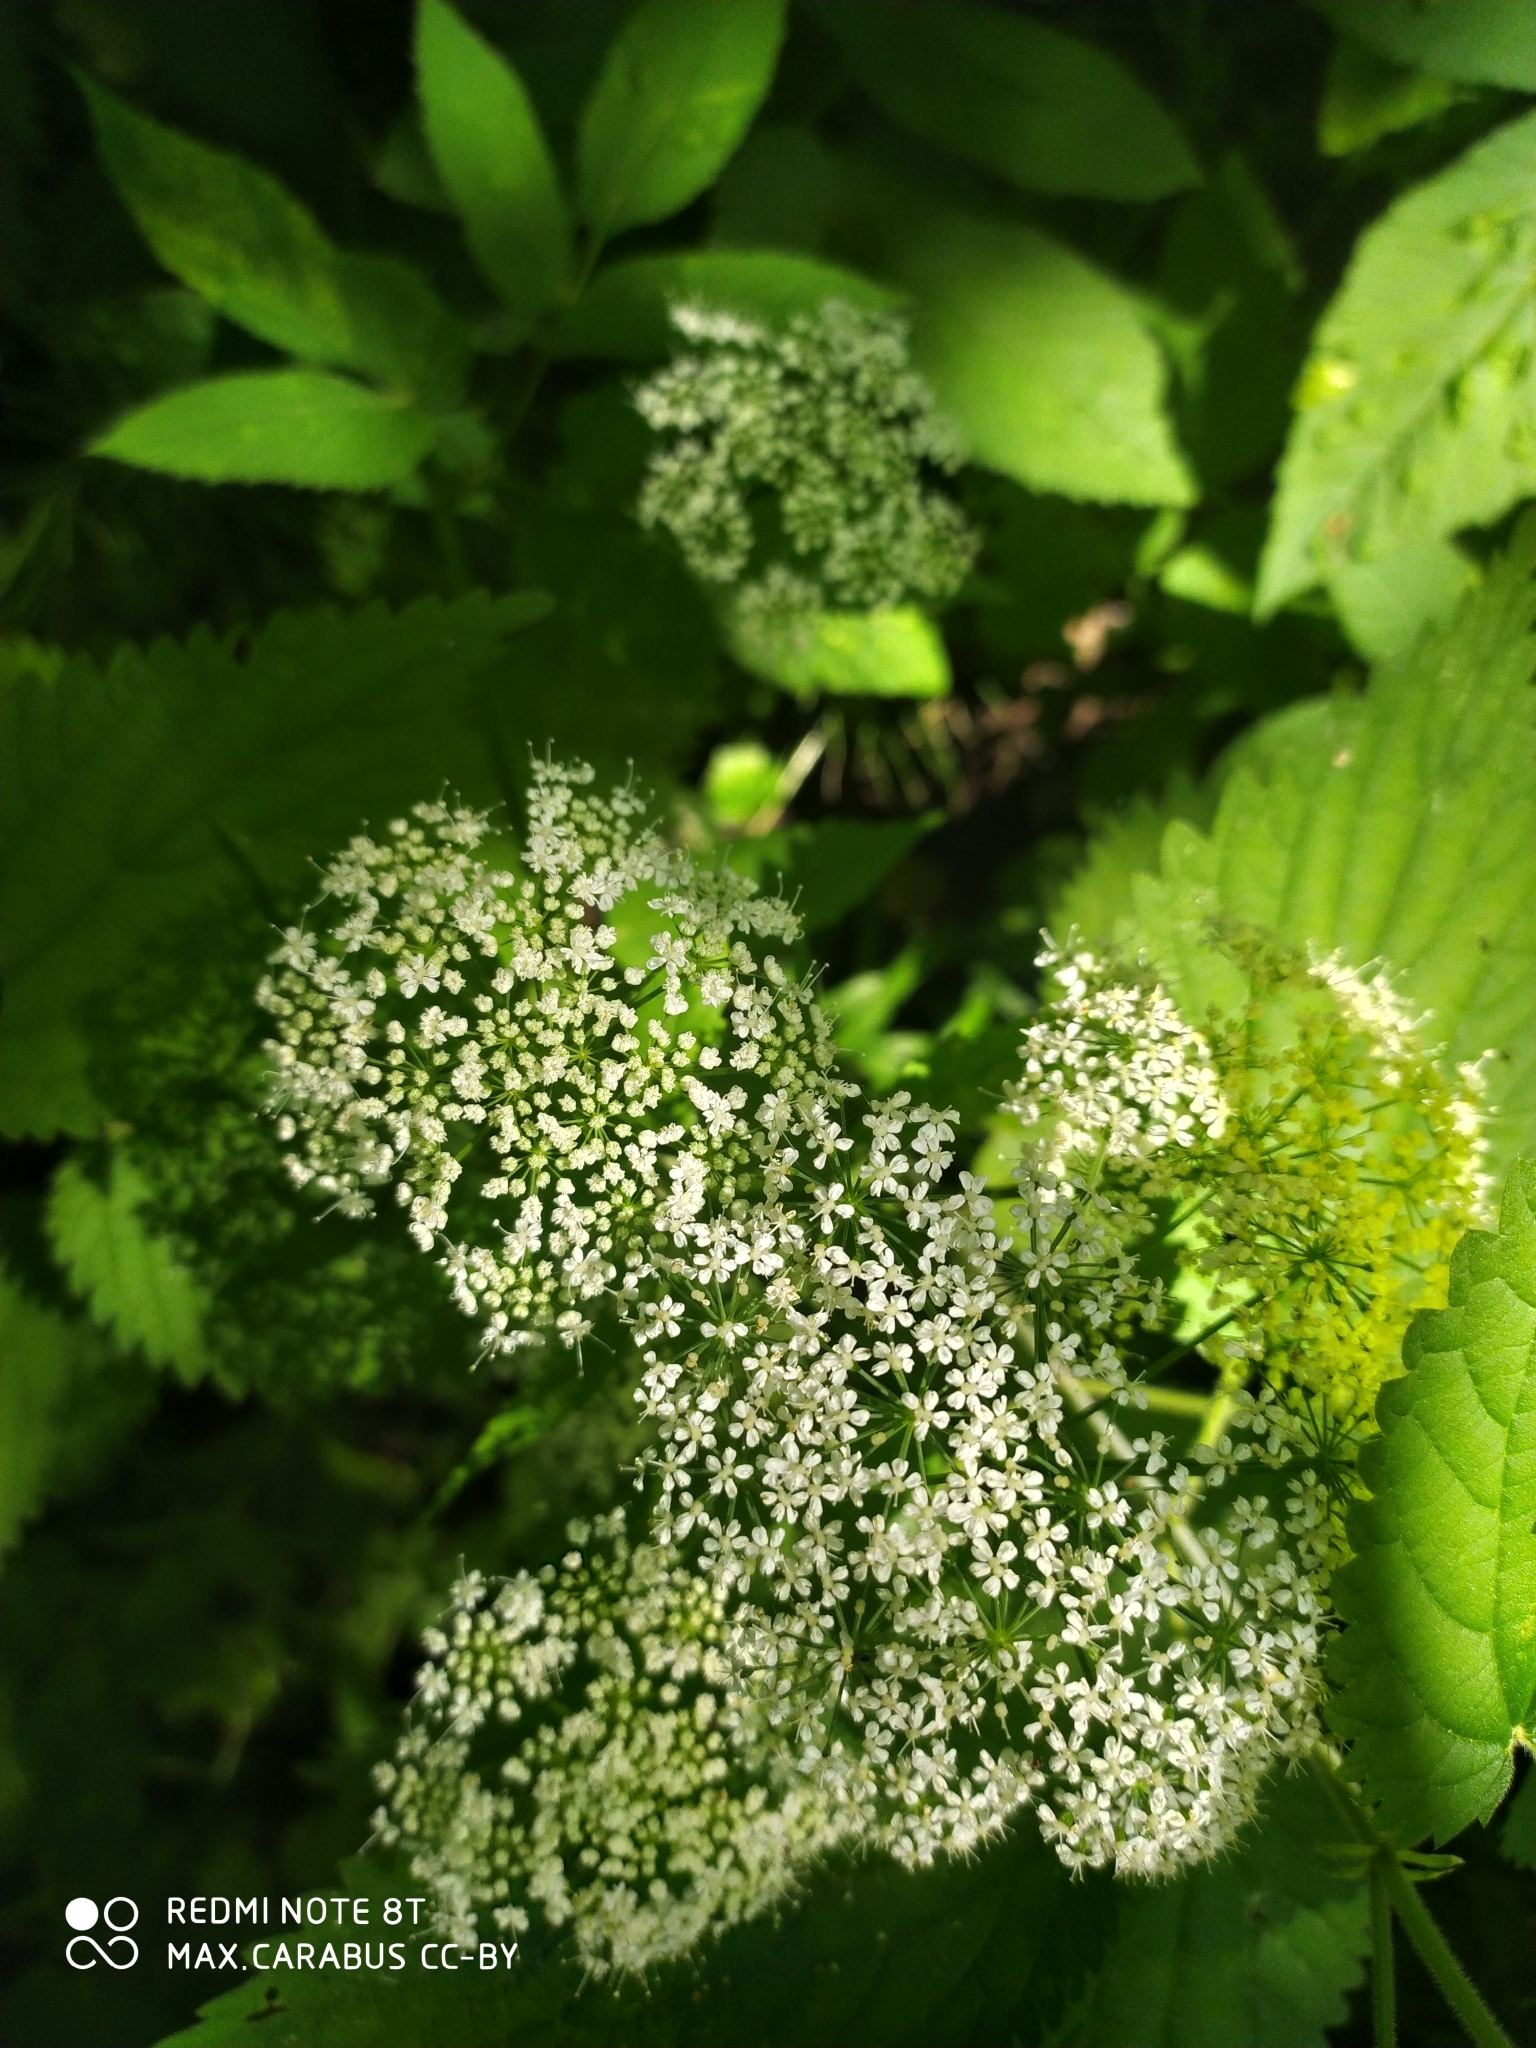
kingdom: Plantae
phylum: Tracheophyta
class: Magnoliopsida
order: Apiales
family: Apiaceae
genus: Aegopodium
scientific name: Aegopodium podagraria
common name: Ground-elder
